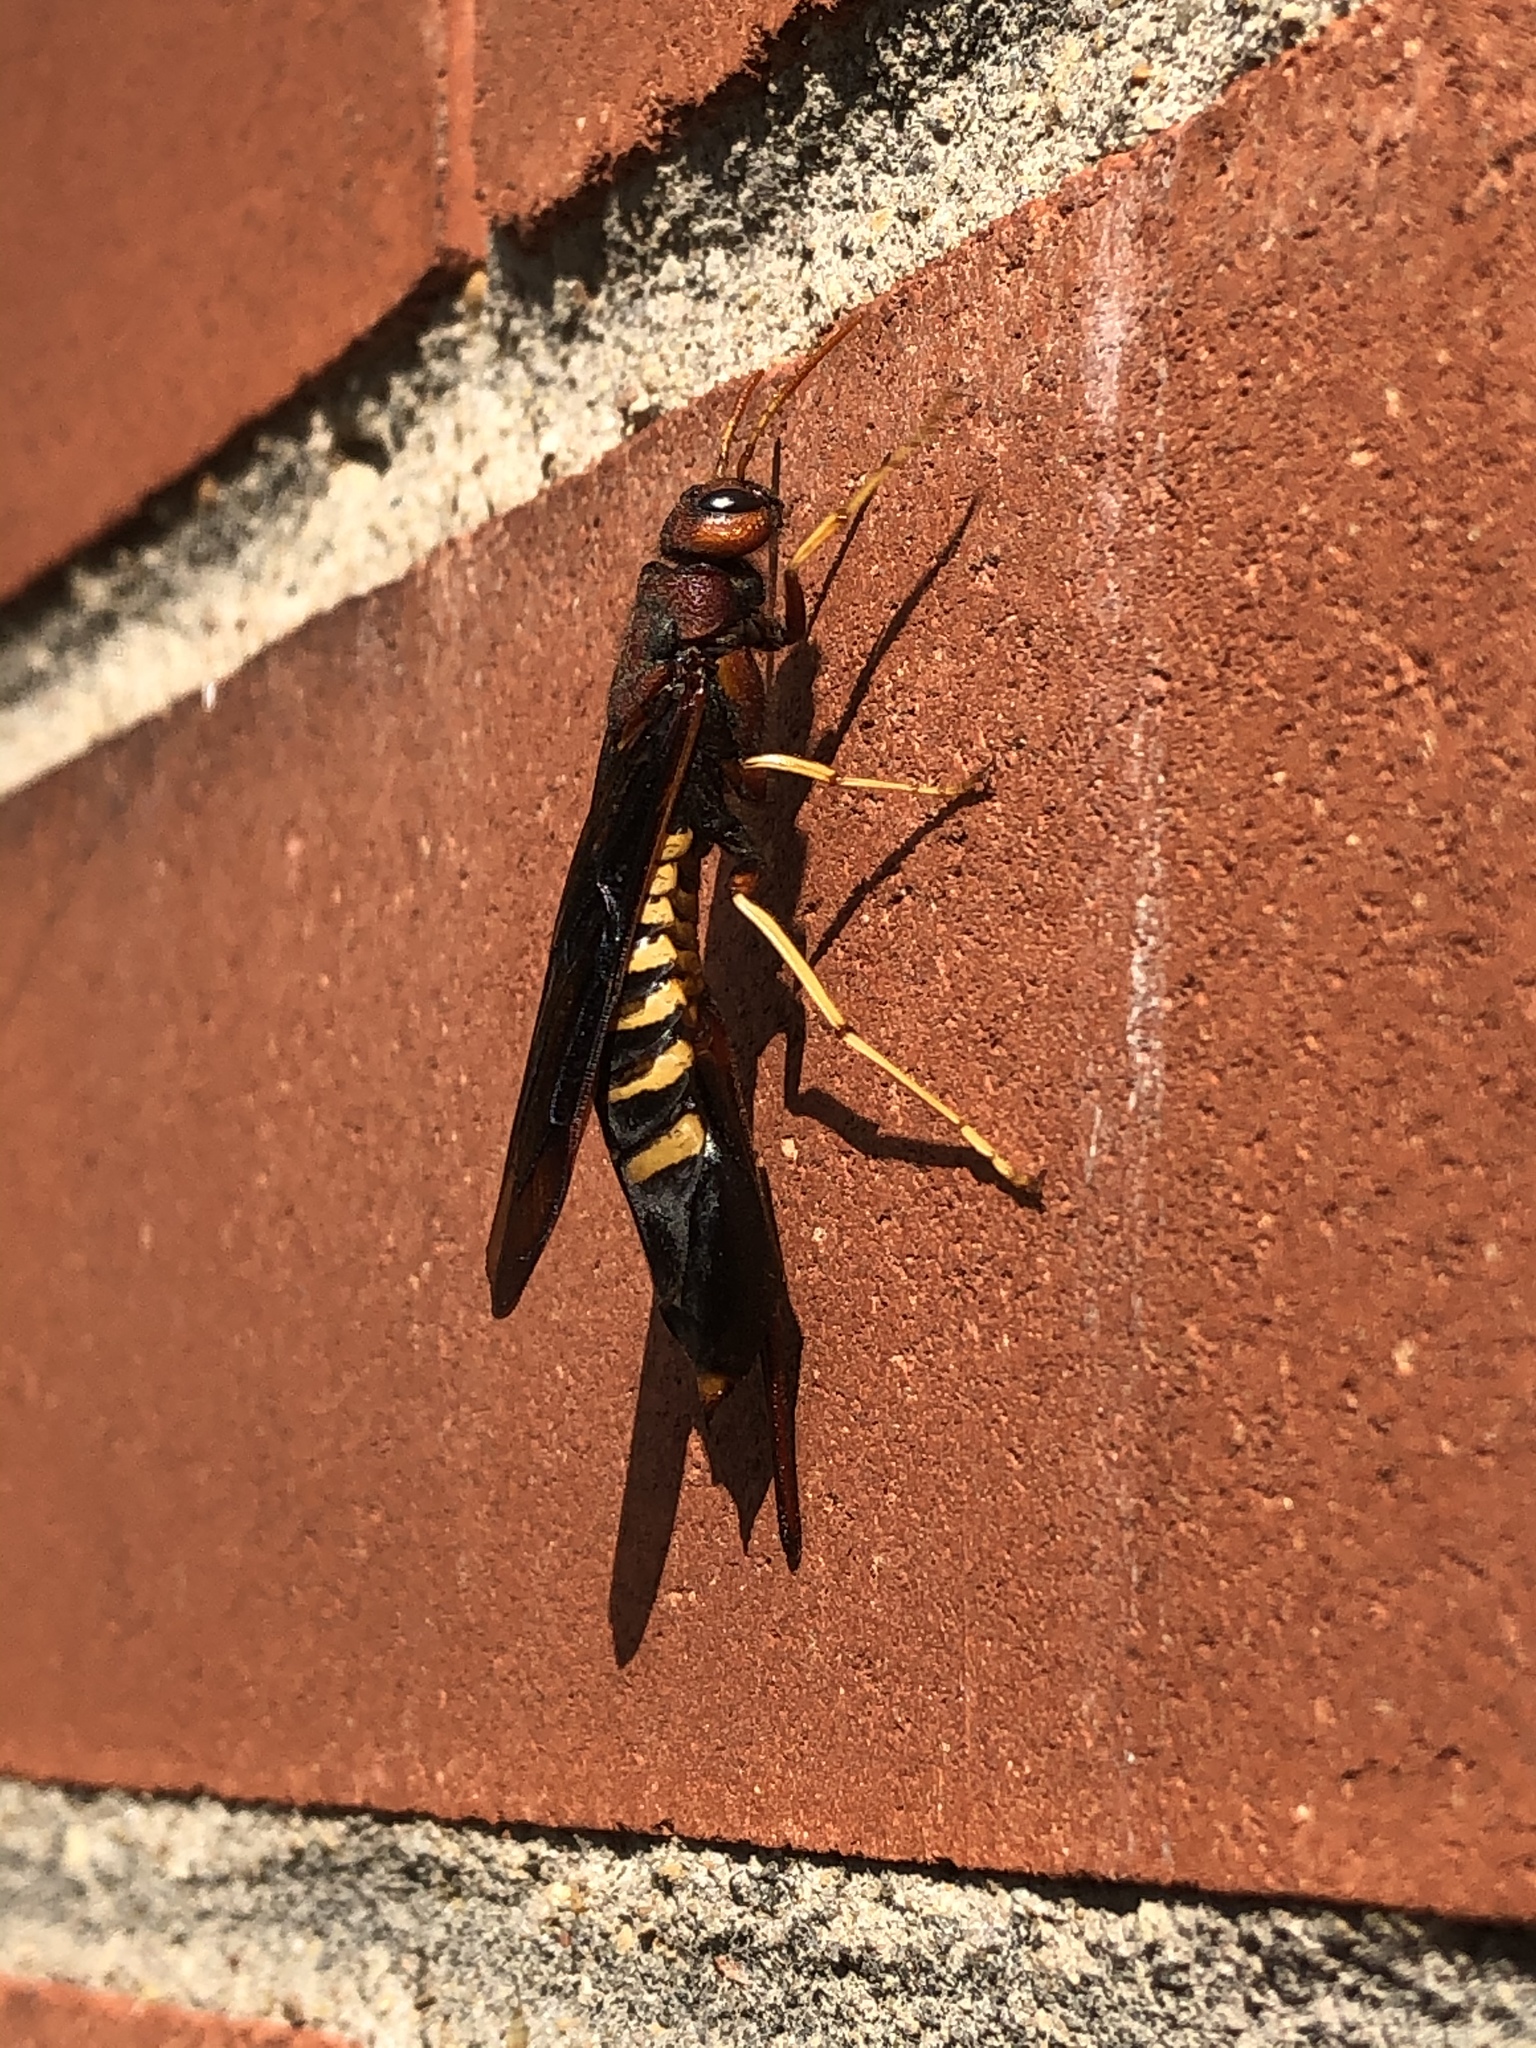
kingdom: Animalia
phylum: Arthropoda
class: Insecta
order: Hymenoptera
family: Siricidae
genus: Tremex
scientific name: Tremex columba
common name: Wasp
